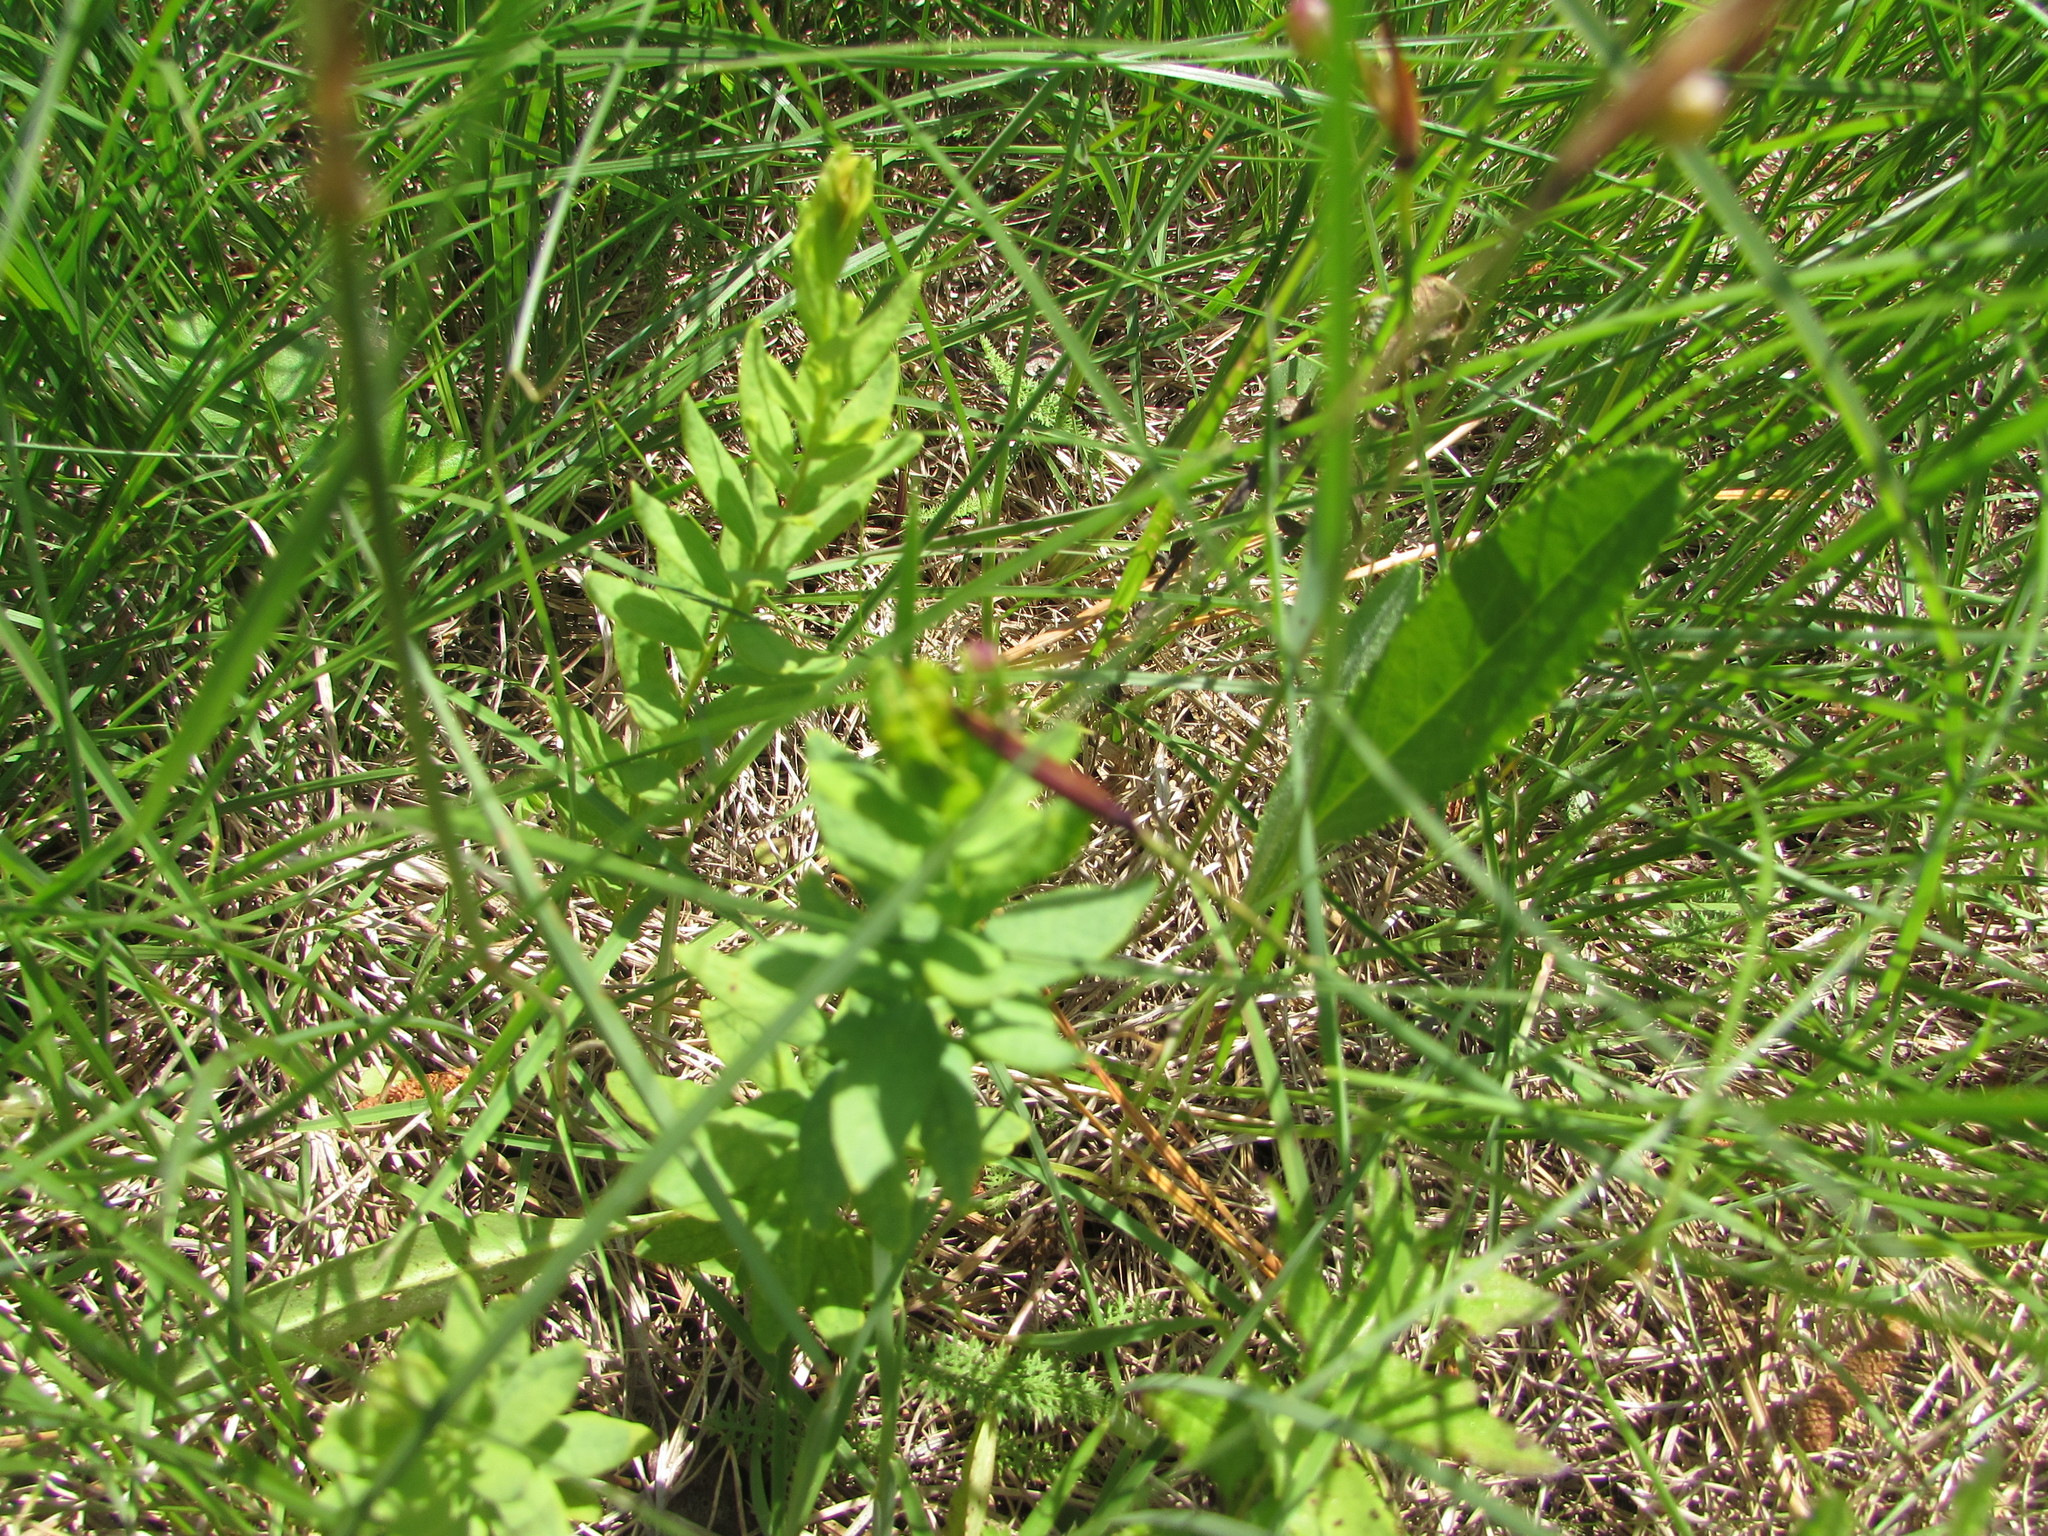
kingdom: Plantae
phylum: Tracheophyta
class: Magnoliopsida
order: Santalales
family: Comandraceae
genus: Comandra
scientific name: Comandra umbellata
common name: Bastard toadflax
